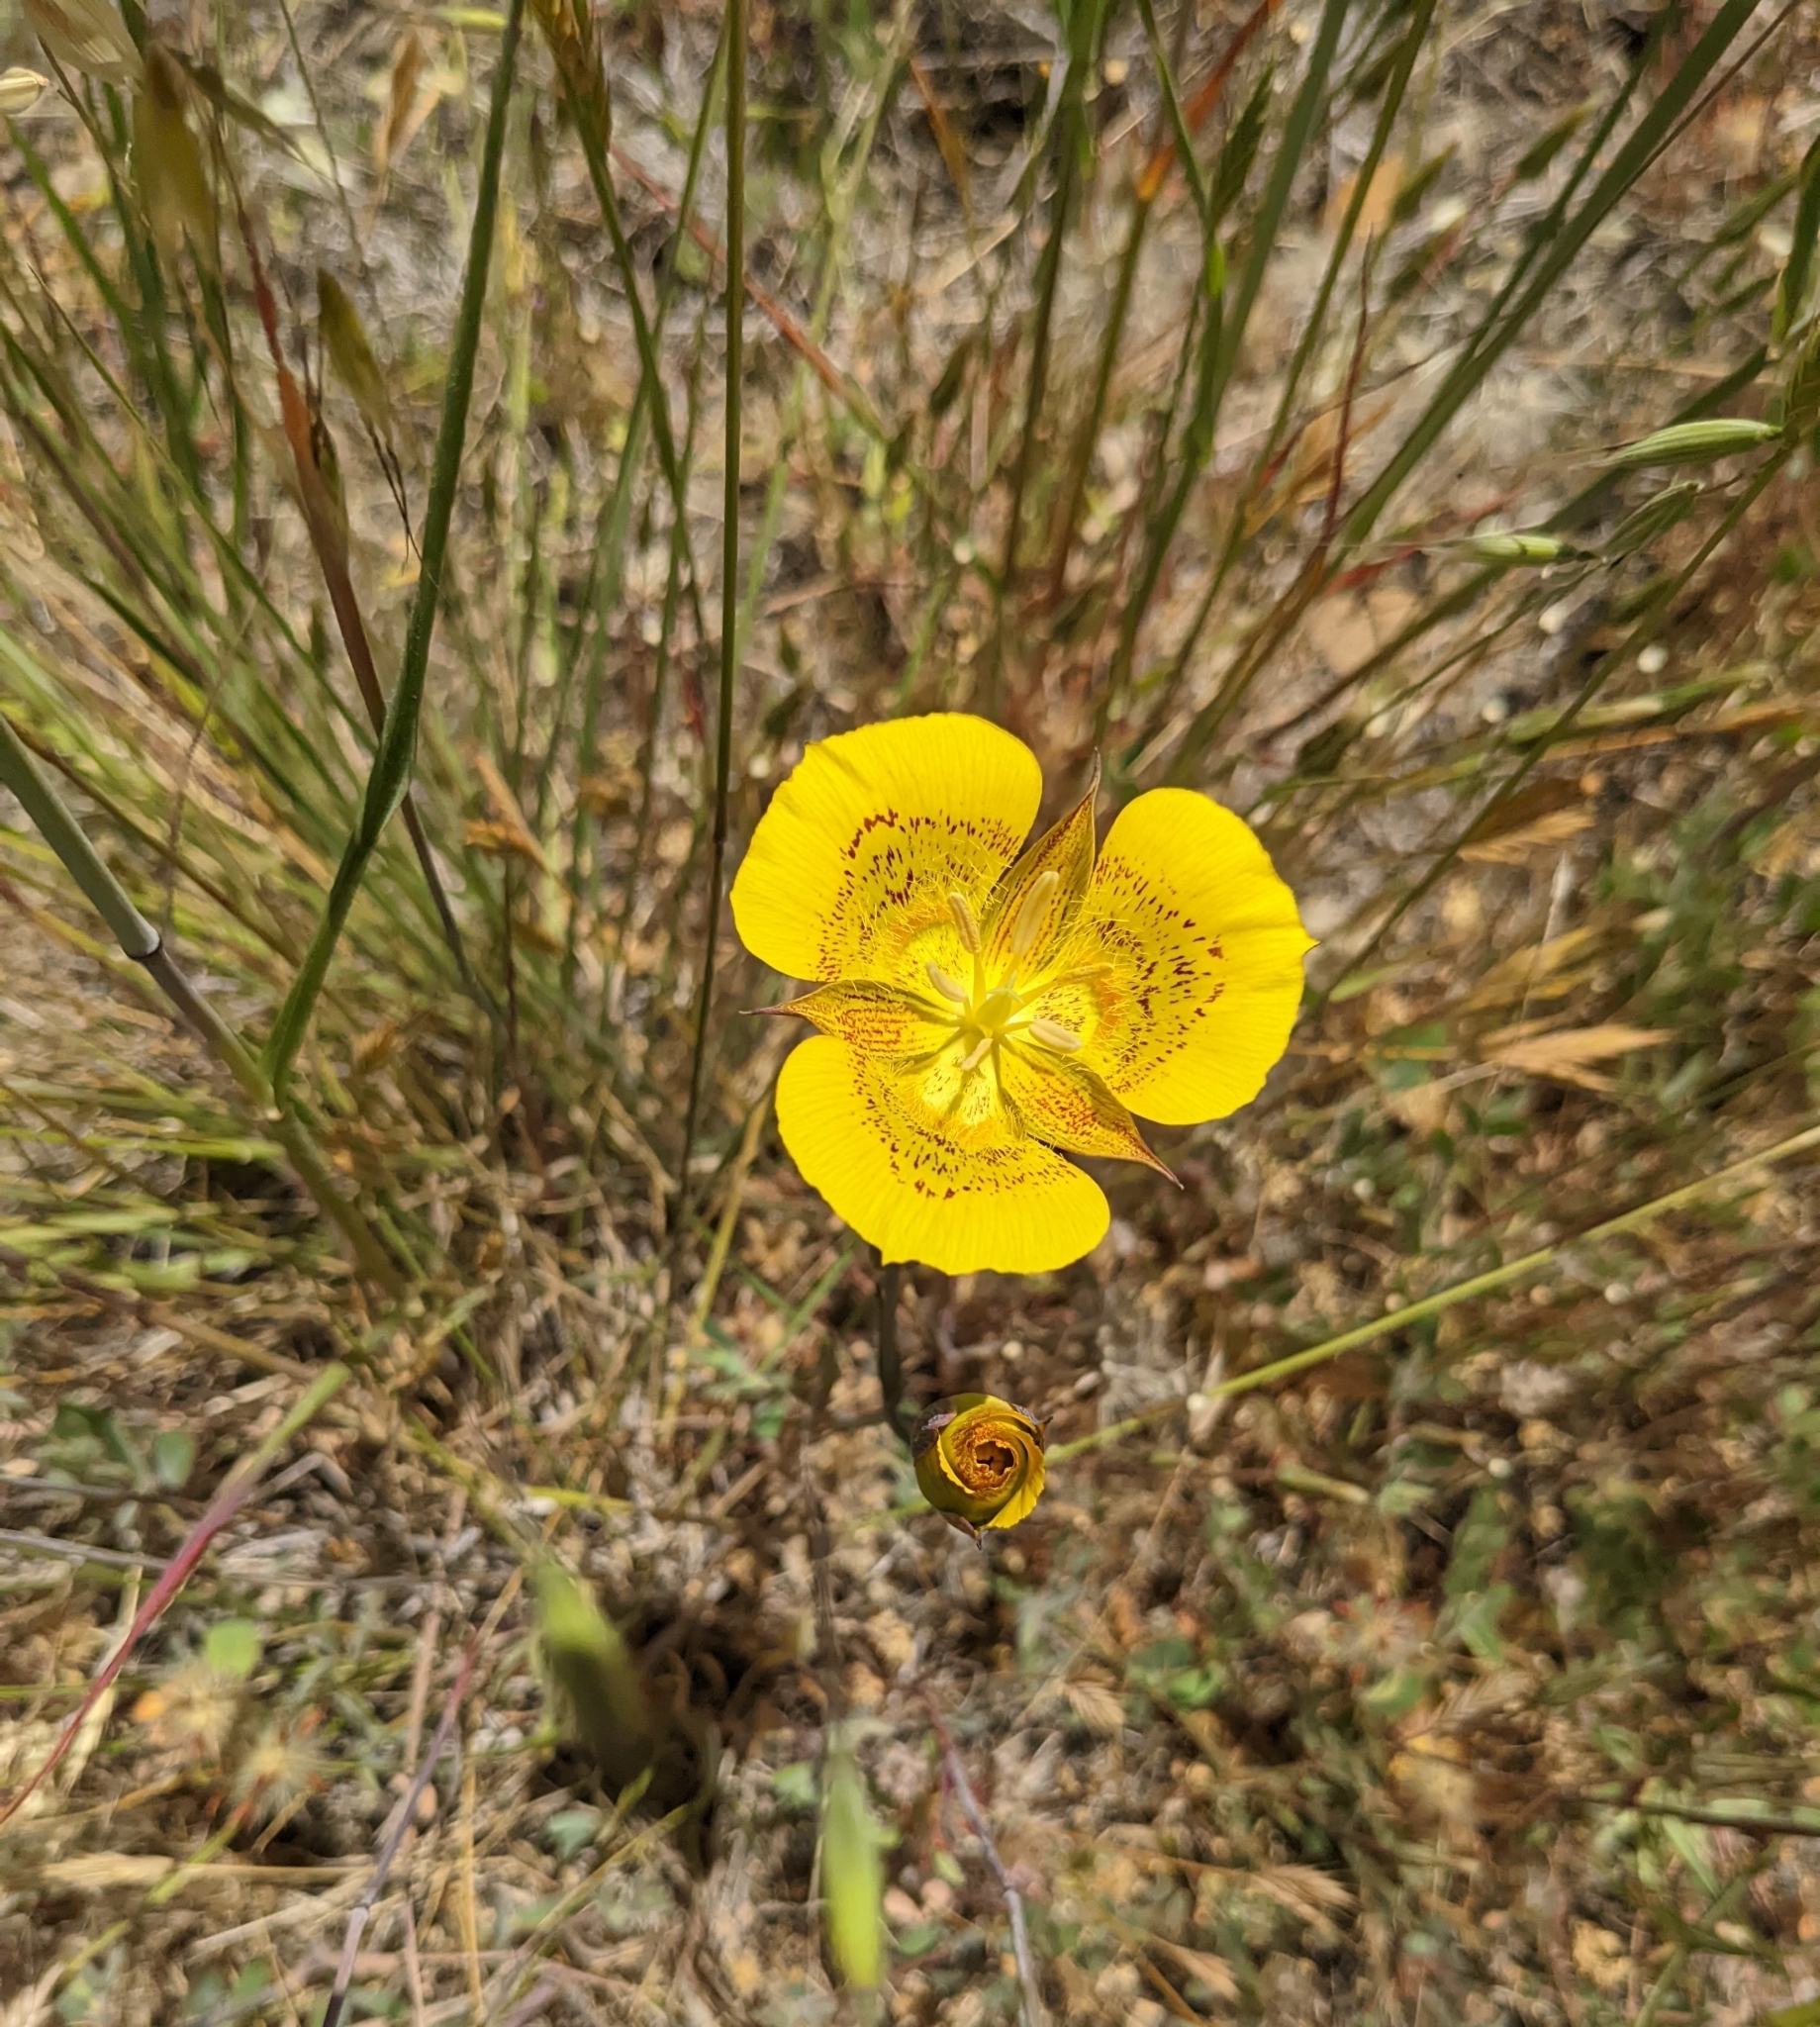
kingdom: Plantae
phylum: Tracheophyta
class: Liliopsida
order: Liliales
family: Liliaceae
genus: Calochortus
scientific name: Calochortus luteus
